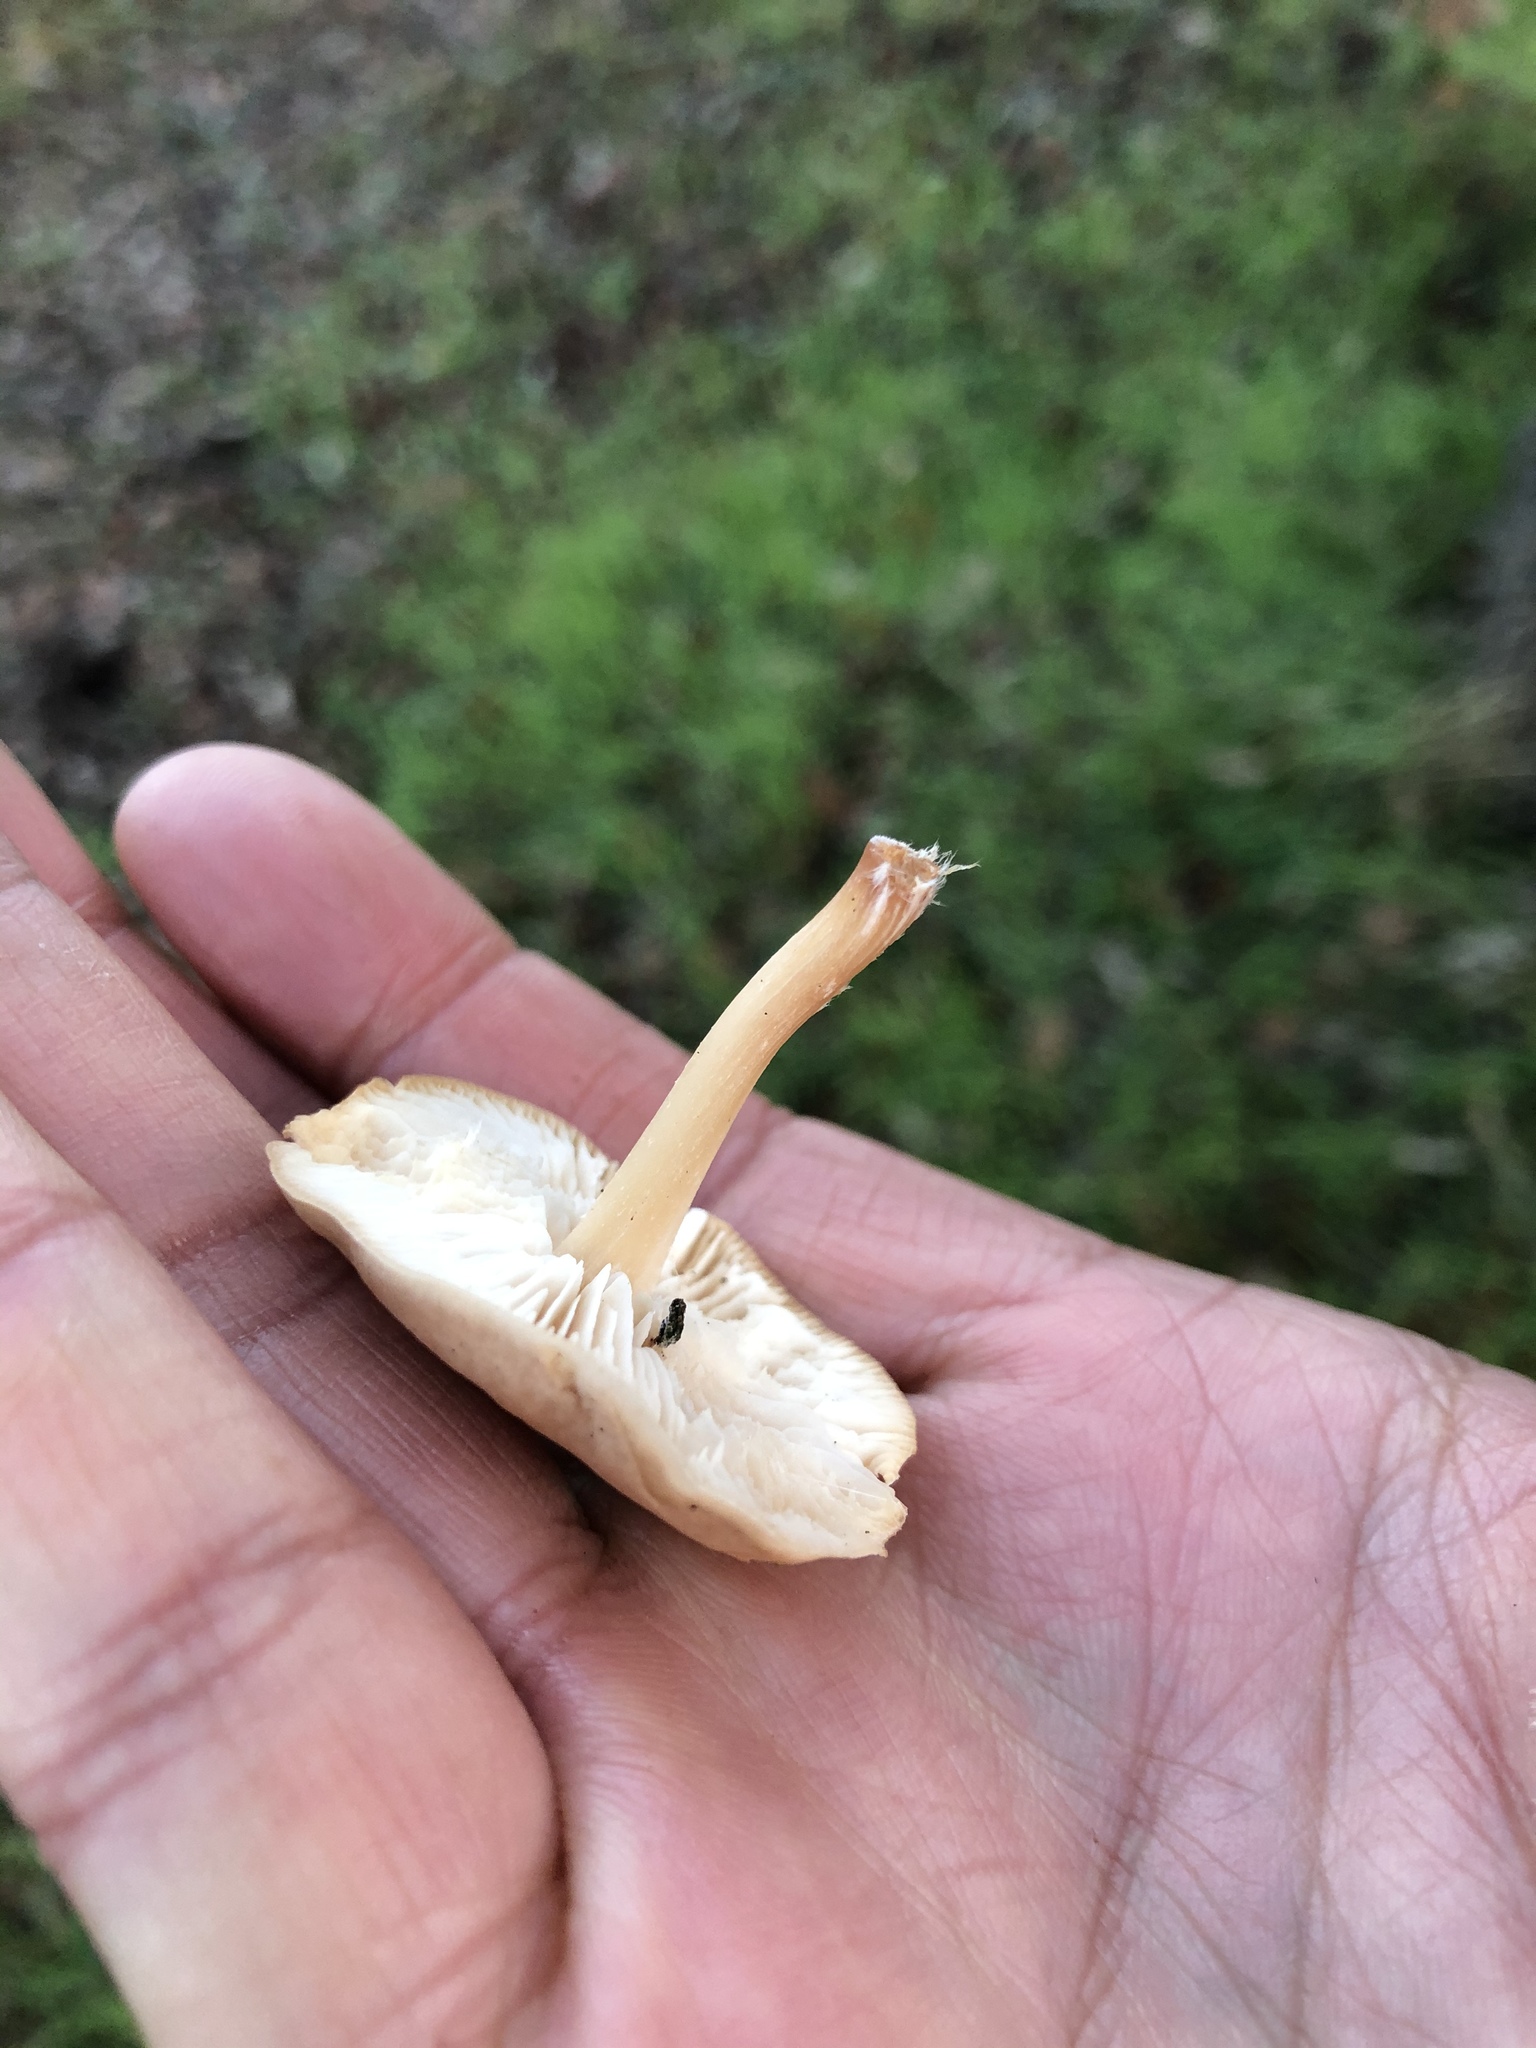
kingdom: Fungi
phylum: Basidiomycota
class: Agaricomycetes
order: Agaricales
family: Omphalotaceae
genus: Gymnopus
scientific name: Gymnopus dryophilus
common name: Penny top
